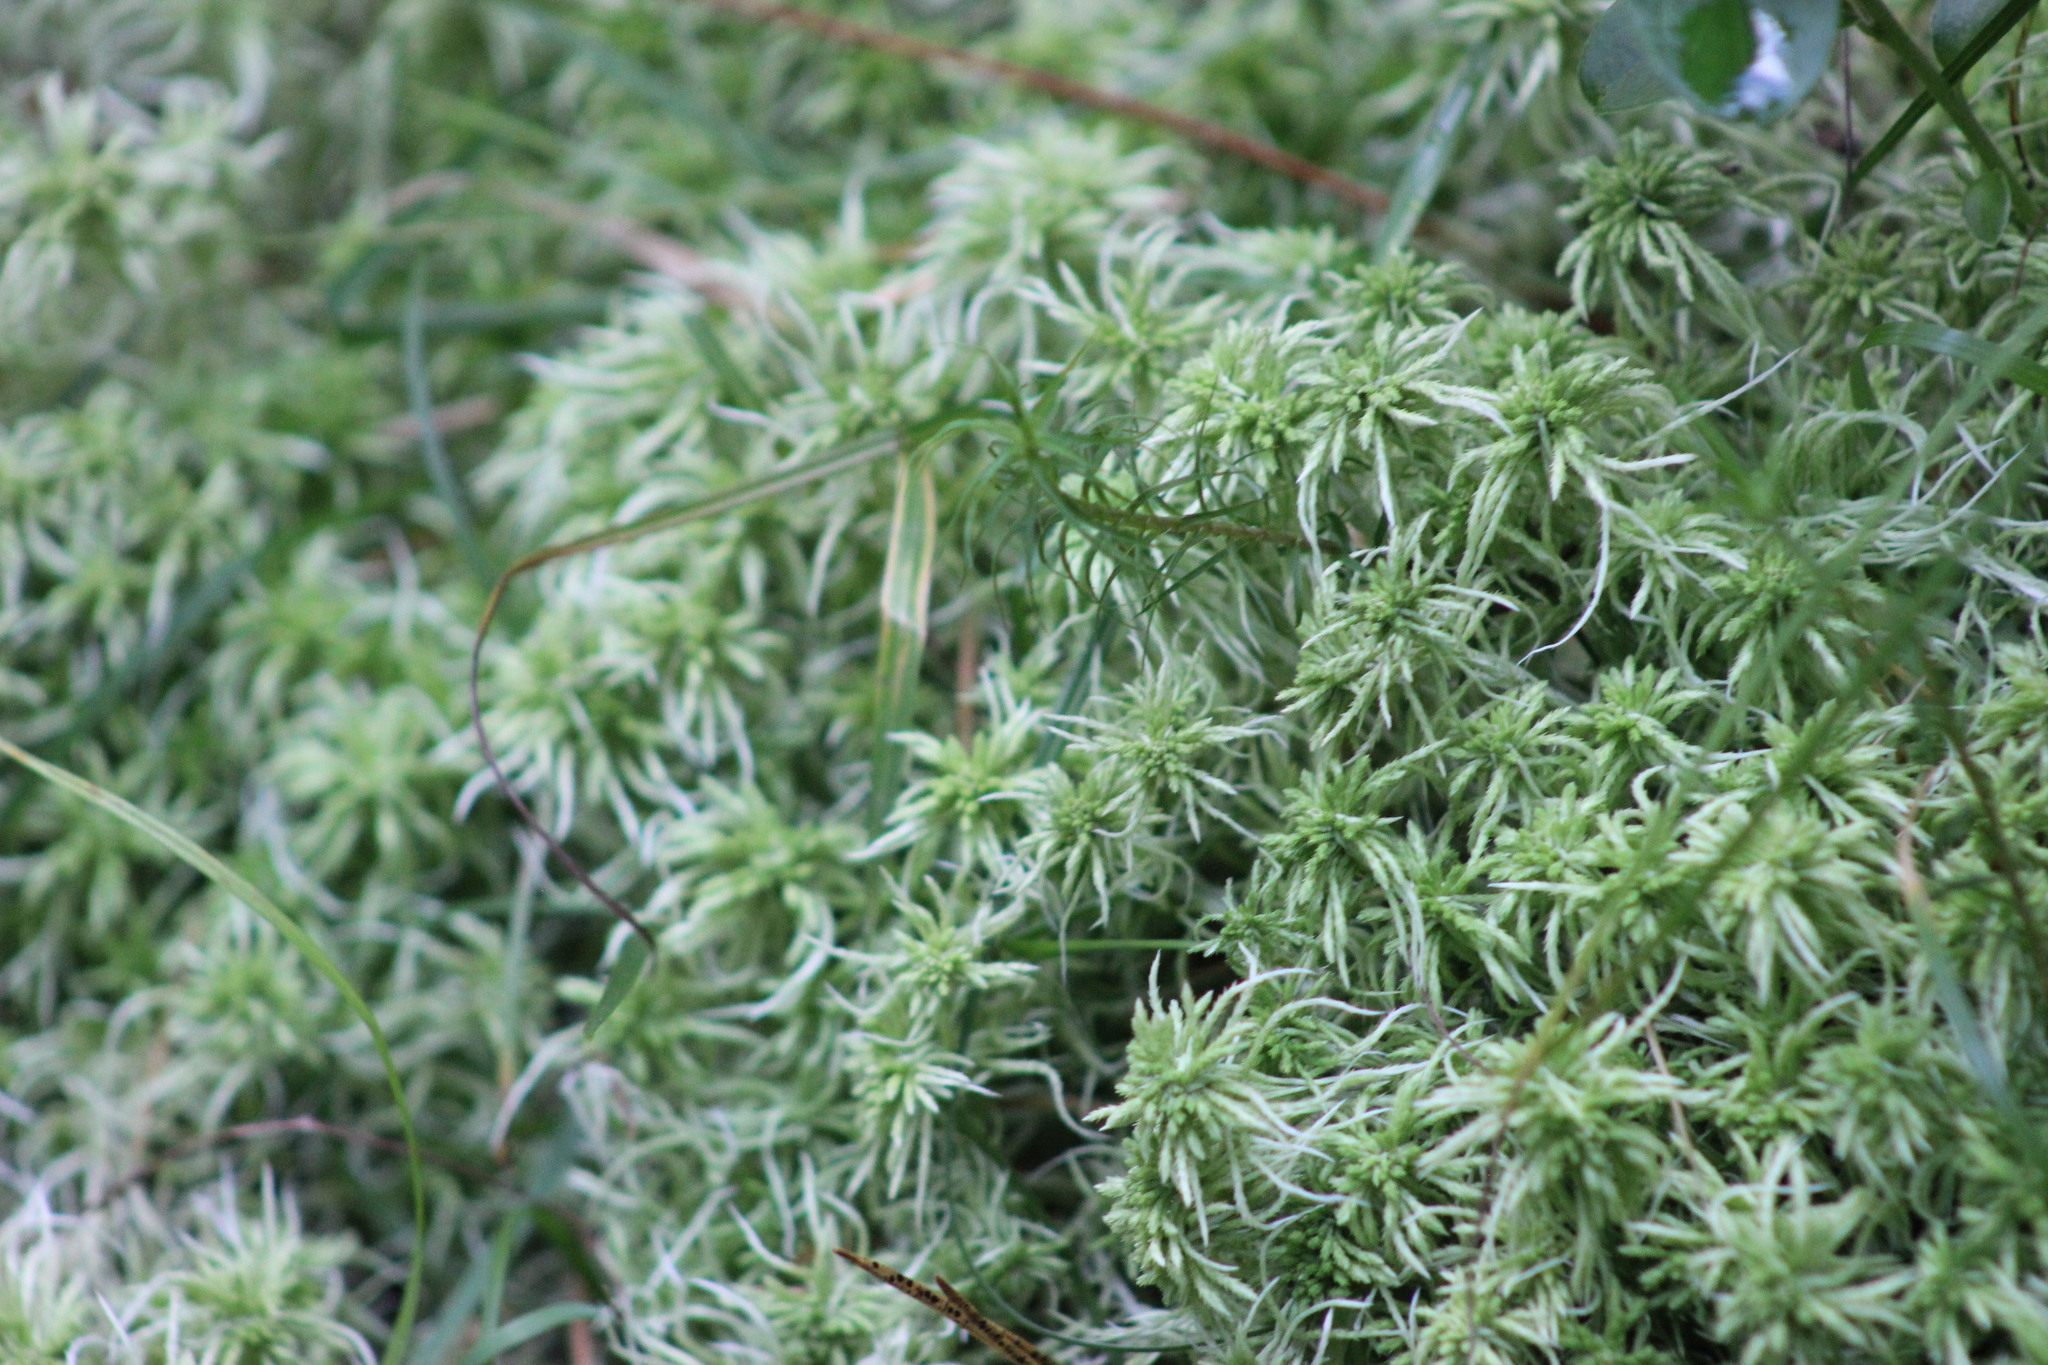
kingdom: Plantae
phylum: Bryophyta
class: Sphagnopsida
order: Sphagnales
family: Sphagnaceae
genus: Sphagnum
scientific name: Sphagnum squarrosum
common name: Shaggy peat moss
